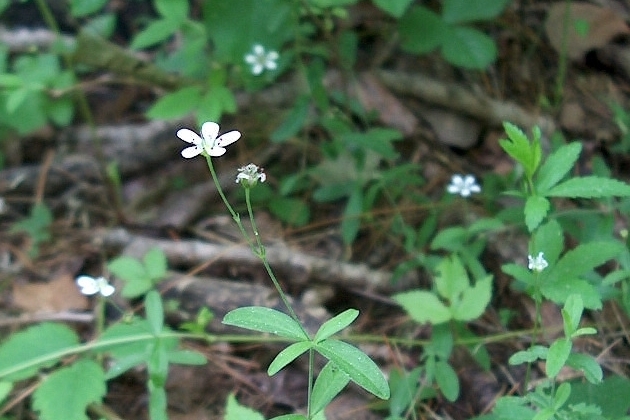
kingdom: Plantae
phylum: Tracheophyta
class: Magnoliopsida
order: Caryophyllales
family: Caryophyllaceae
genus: Moehringia
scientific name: Moehringia lateriflora
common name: Blunt-leaved sandwort
